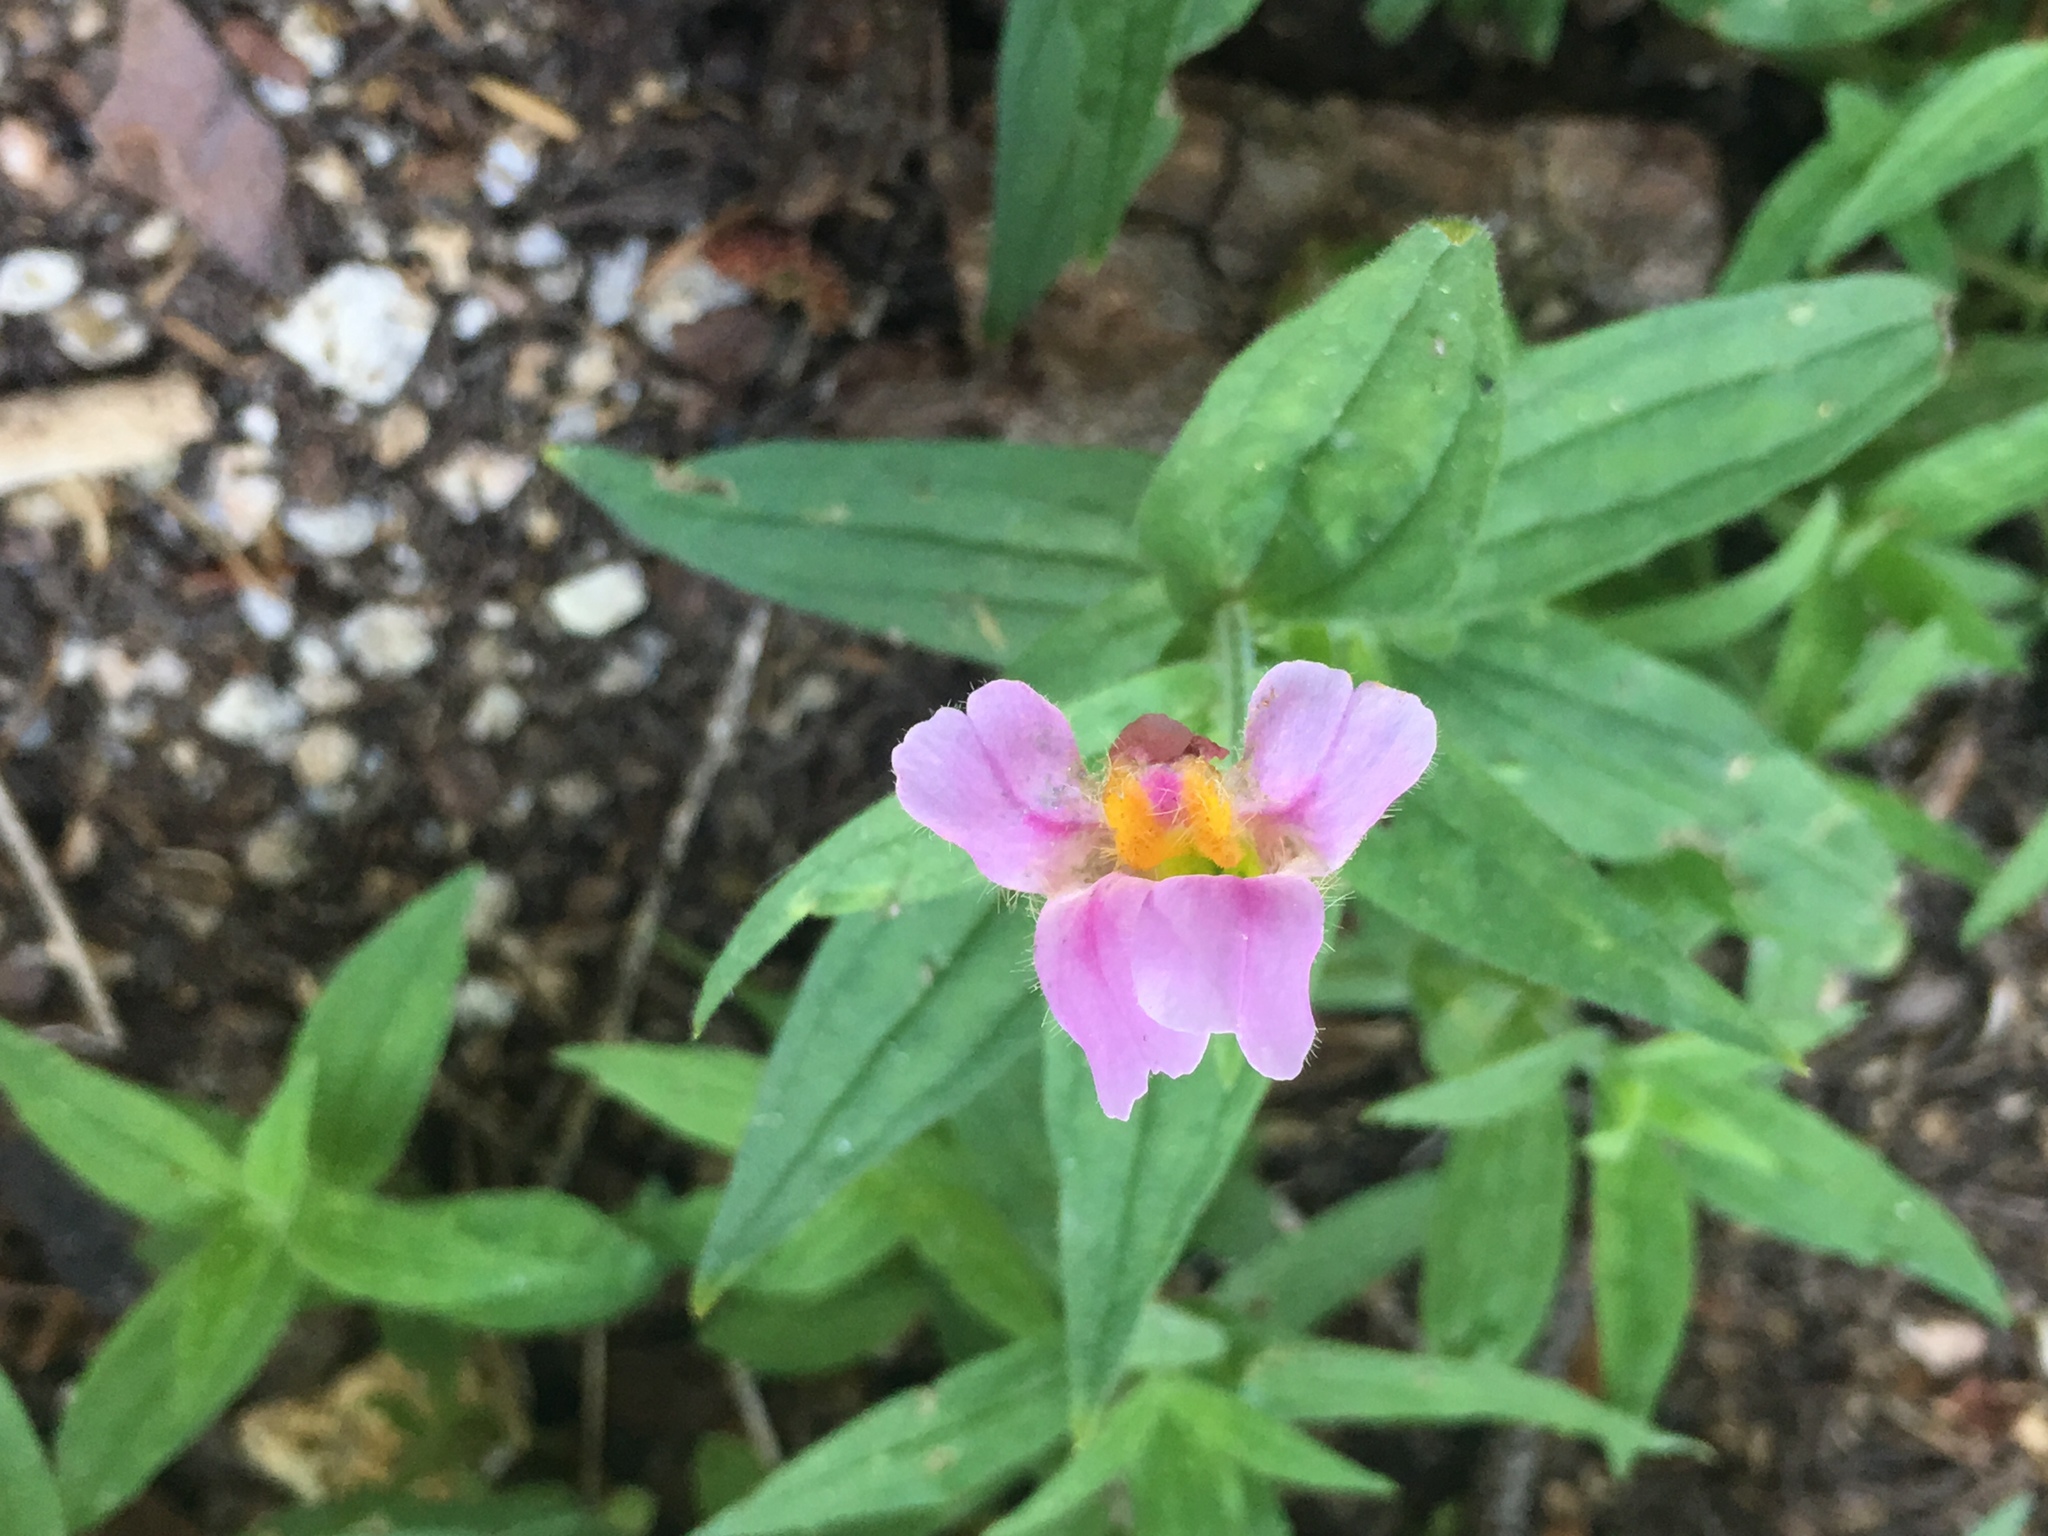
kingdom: Plantae
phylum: Tracheophyta
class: Magnoliopsida
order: Lamiales
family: Phrymaceae
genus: Erythranthe
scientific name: Erythranthe erubescens
